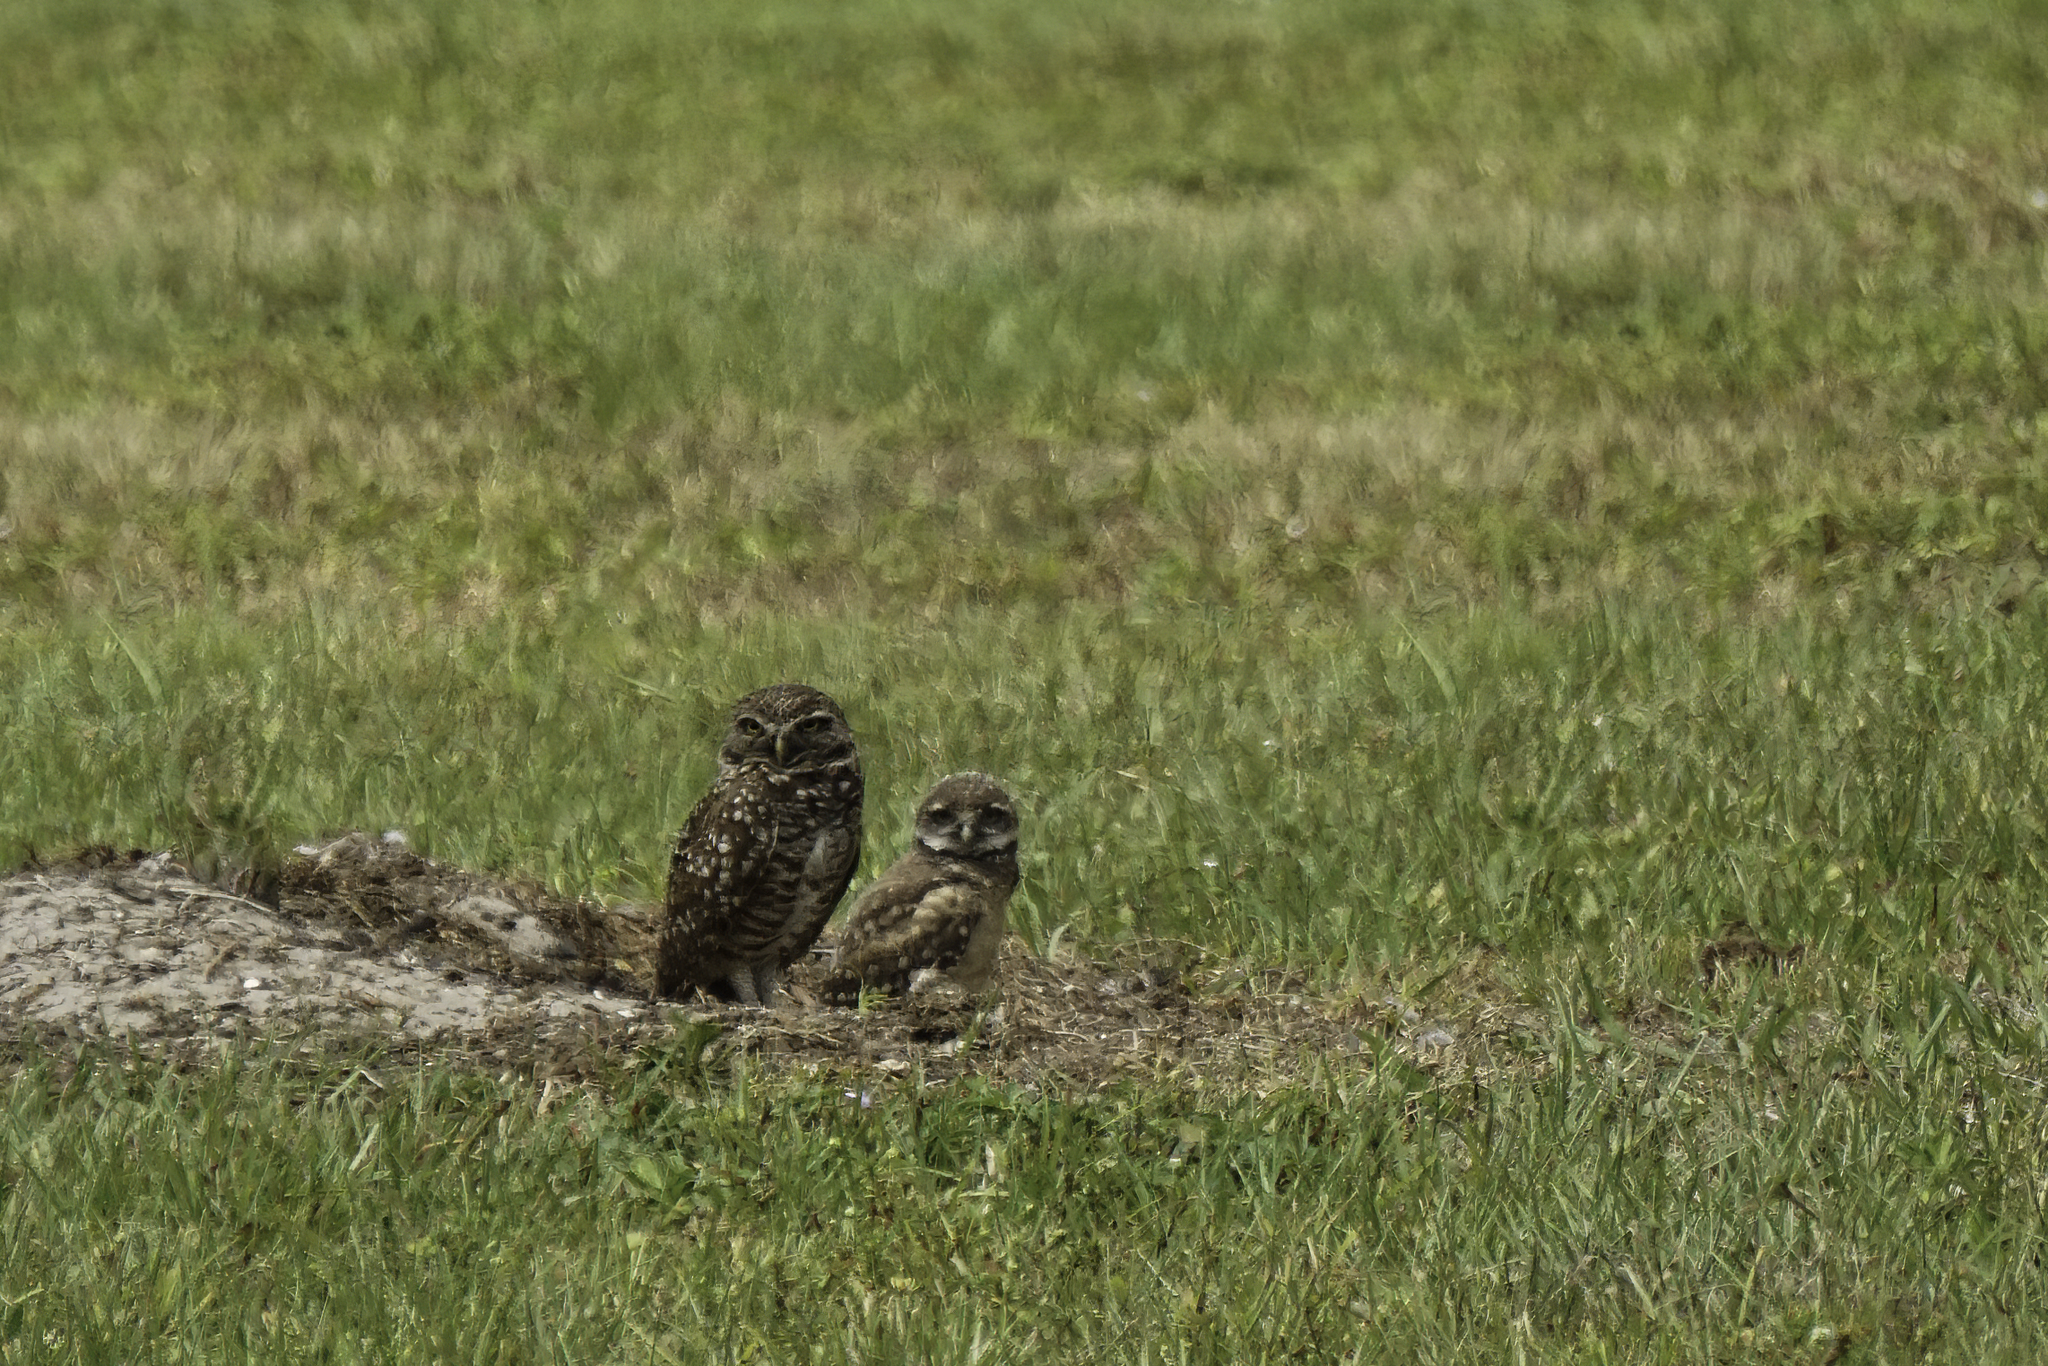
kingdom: Animalia
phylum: Chordata
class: Aves
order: Strigiformes
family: Strigidae
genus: Athene
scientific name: Athene cunicularia
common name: Burrowing owl
